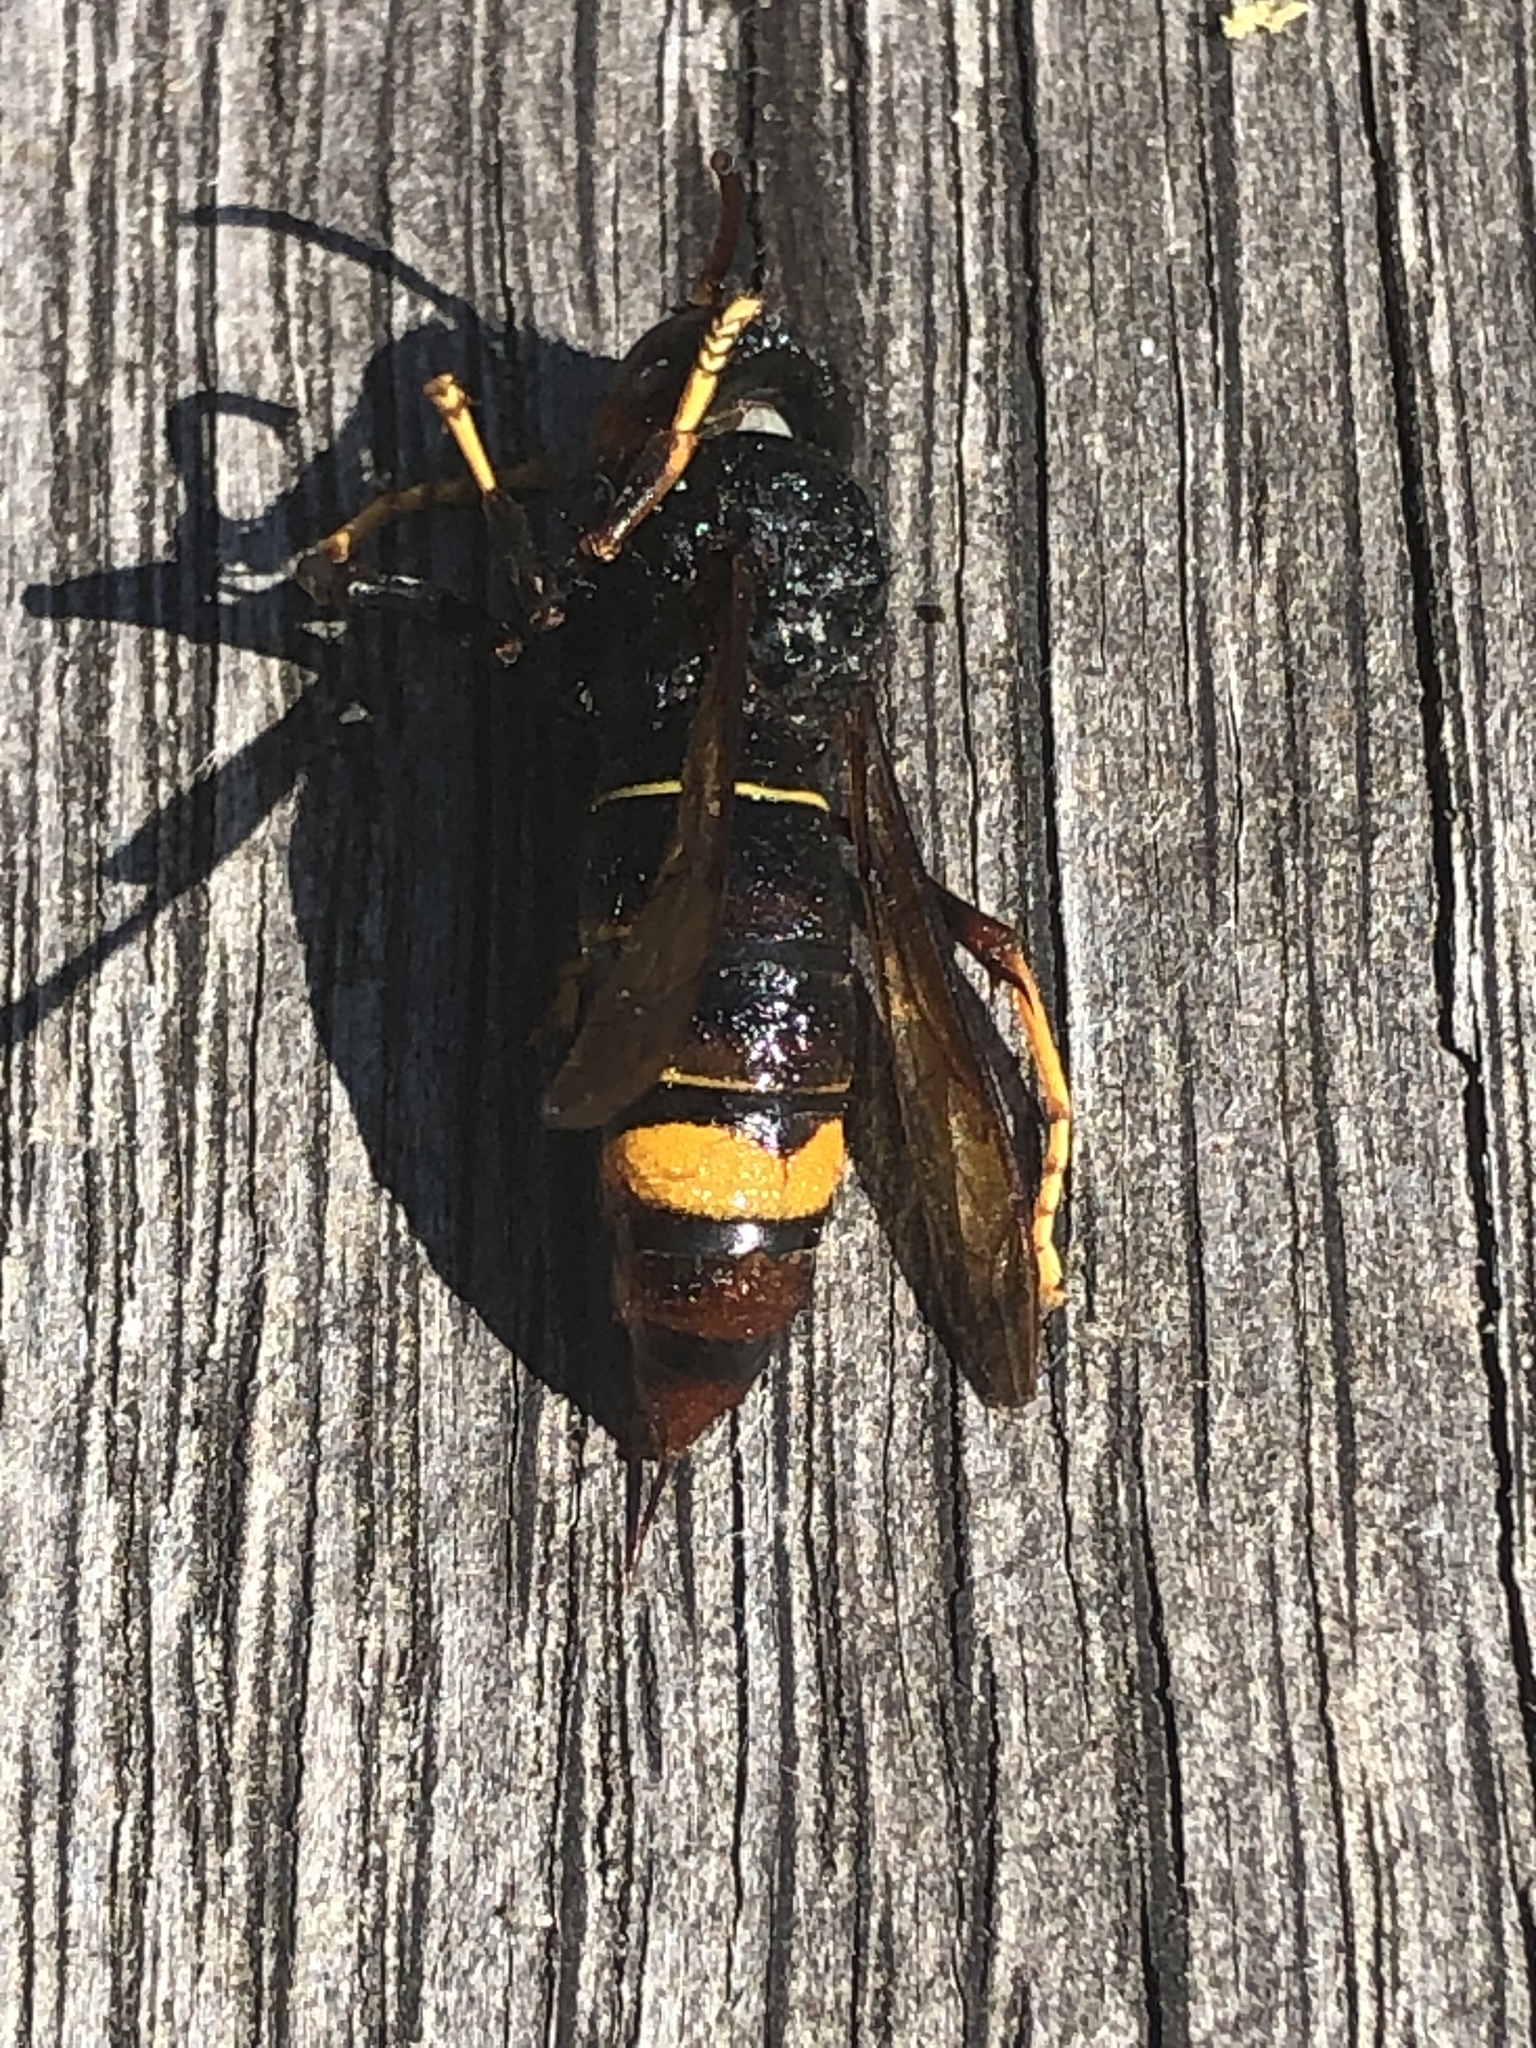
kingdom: Animalia
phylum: Arthropoda
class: Insecta
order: Hymenoptera
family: Vespidae
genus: Vespa
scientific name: Vespa velutina
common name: Asian hornet
